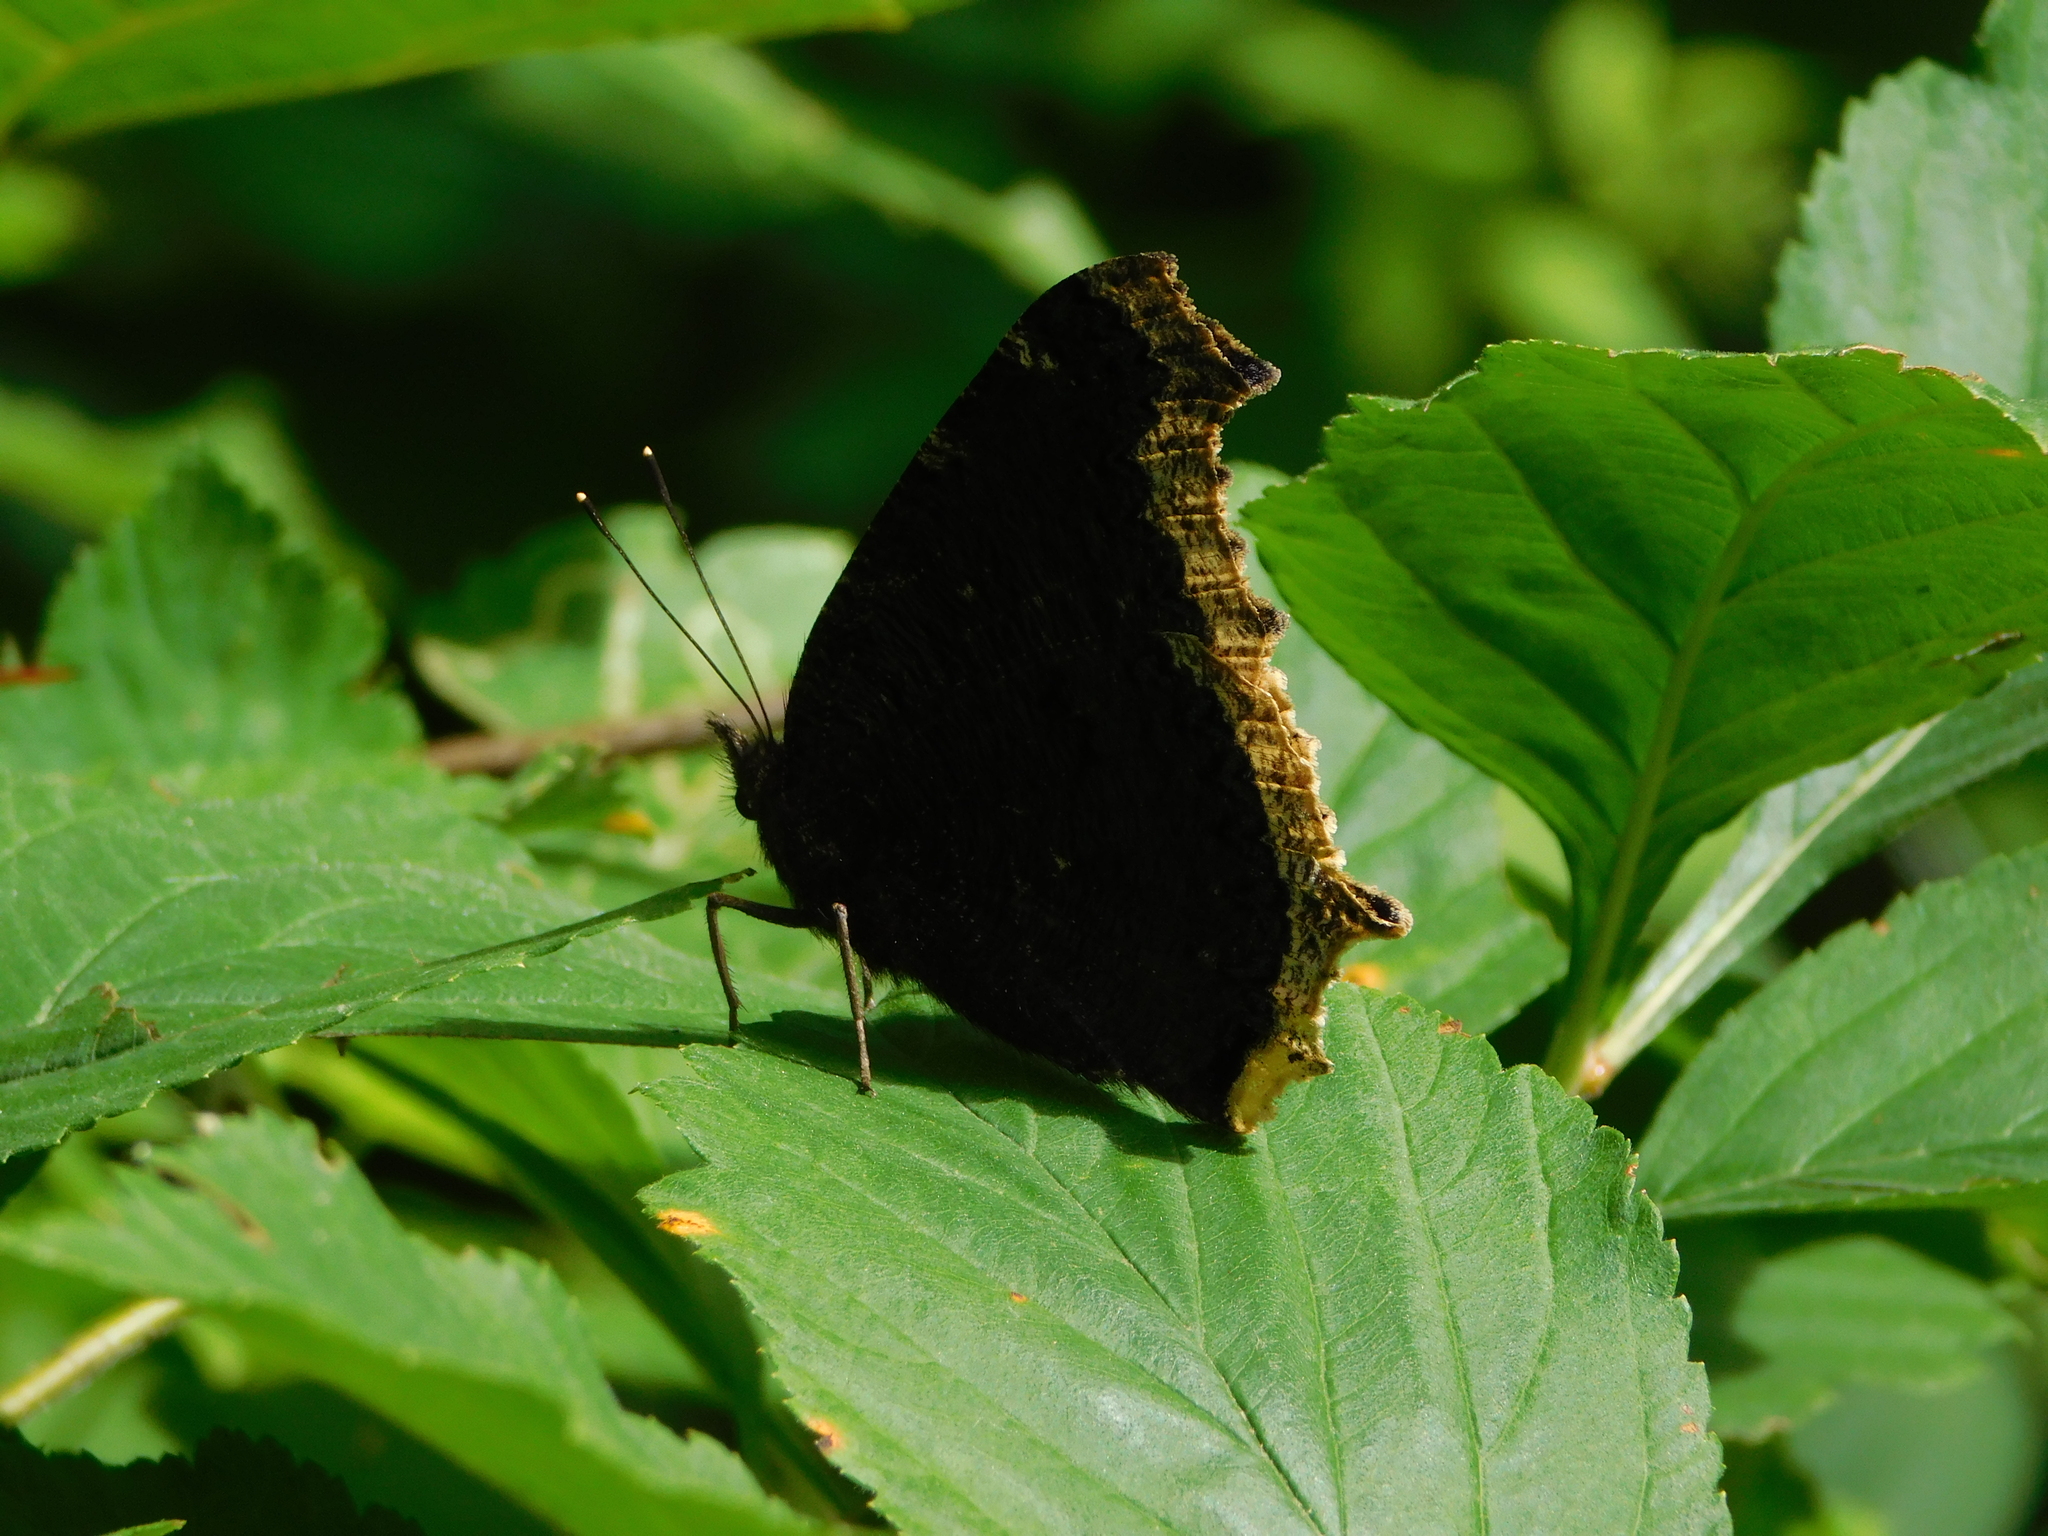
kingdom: Animalia
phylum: Arthropoda
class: Insecta
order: Lepidoptera
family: Nymphalidae
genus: Nymphalis
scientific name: Nymphalis antiopa
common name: Camberwell beauty
